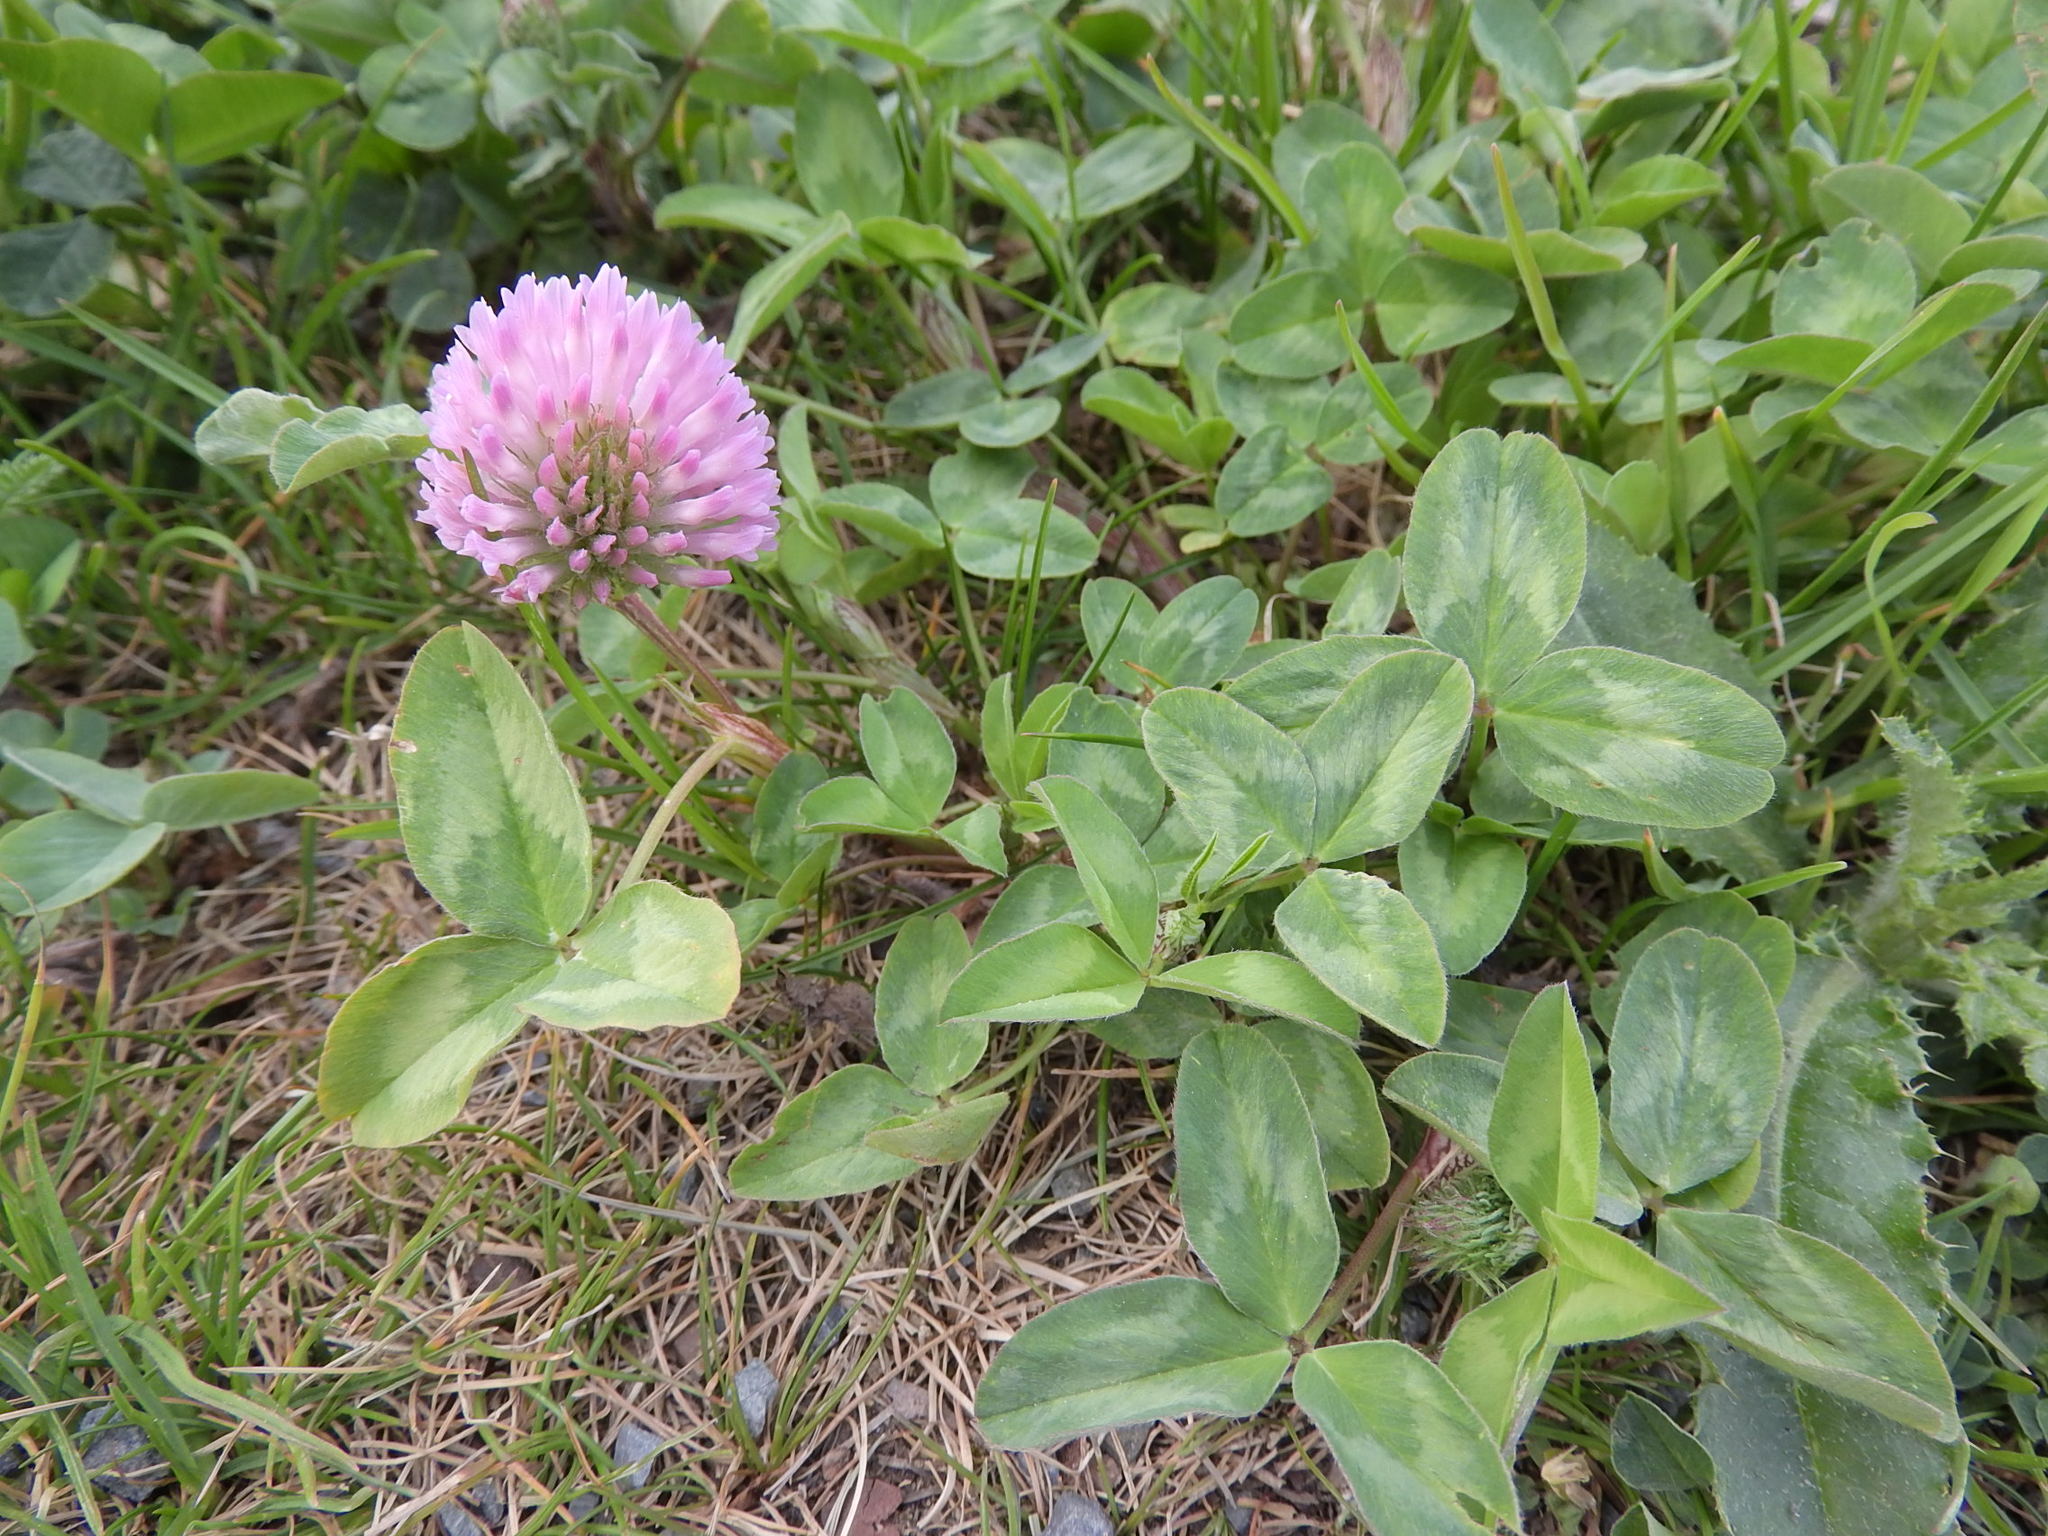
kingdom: Plantae
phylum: Tracheophyta
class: Magnoliopsida
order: Fabales
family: Fabaceae
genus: Trifolium
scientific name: Trifolium pratense
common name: Red clover
